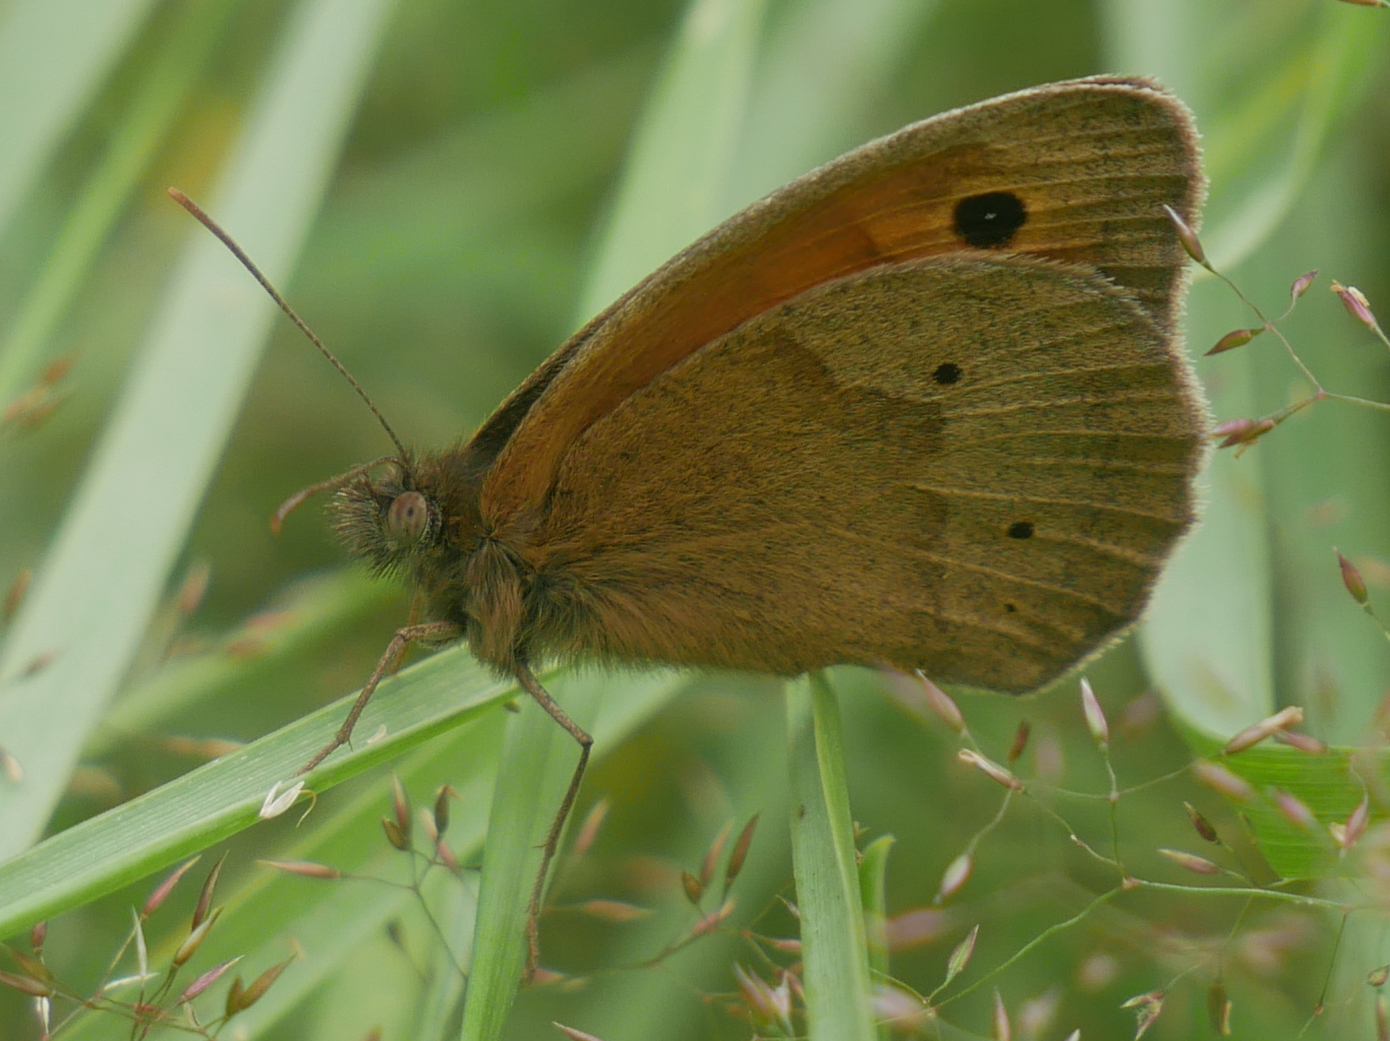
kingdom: Animalia
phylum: Arthropoda
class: Insecta
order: Lepidoptera
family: Nymphalidae
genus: Maniola
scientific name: Maniola jurtina
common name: Meadow brown
